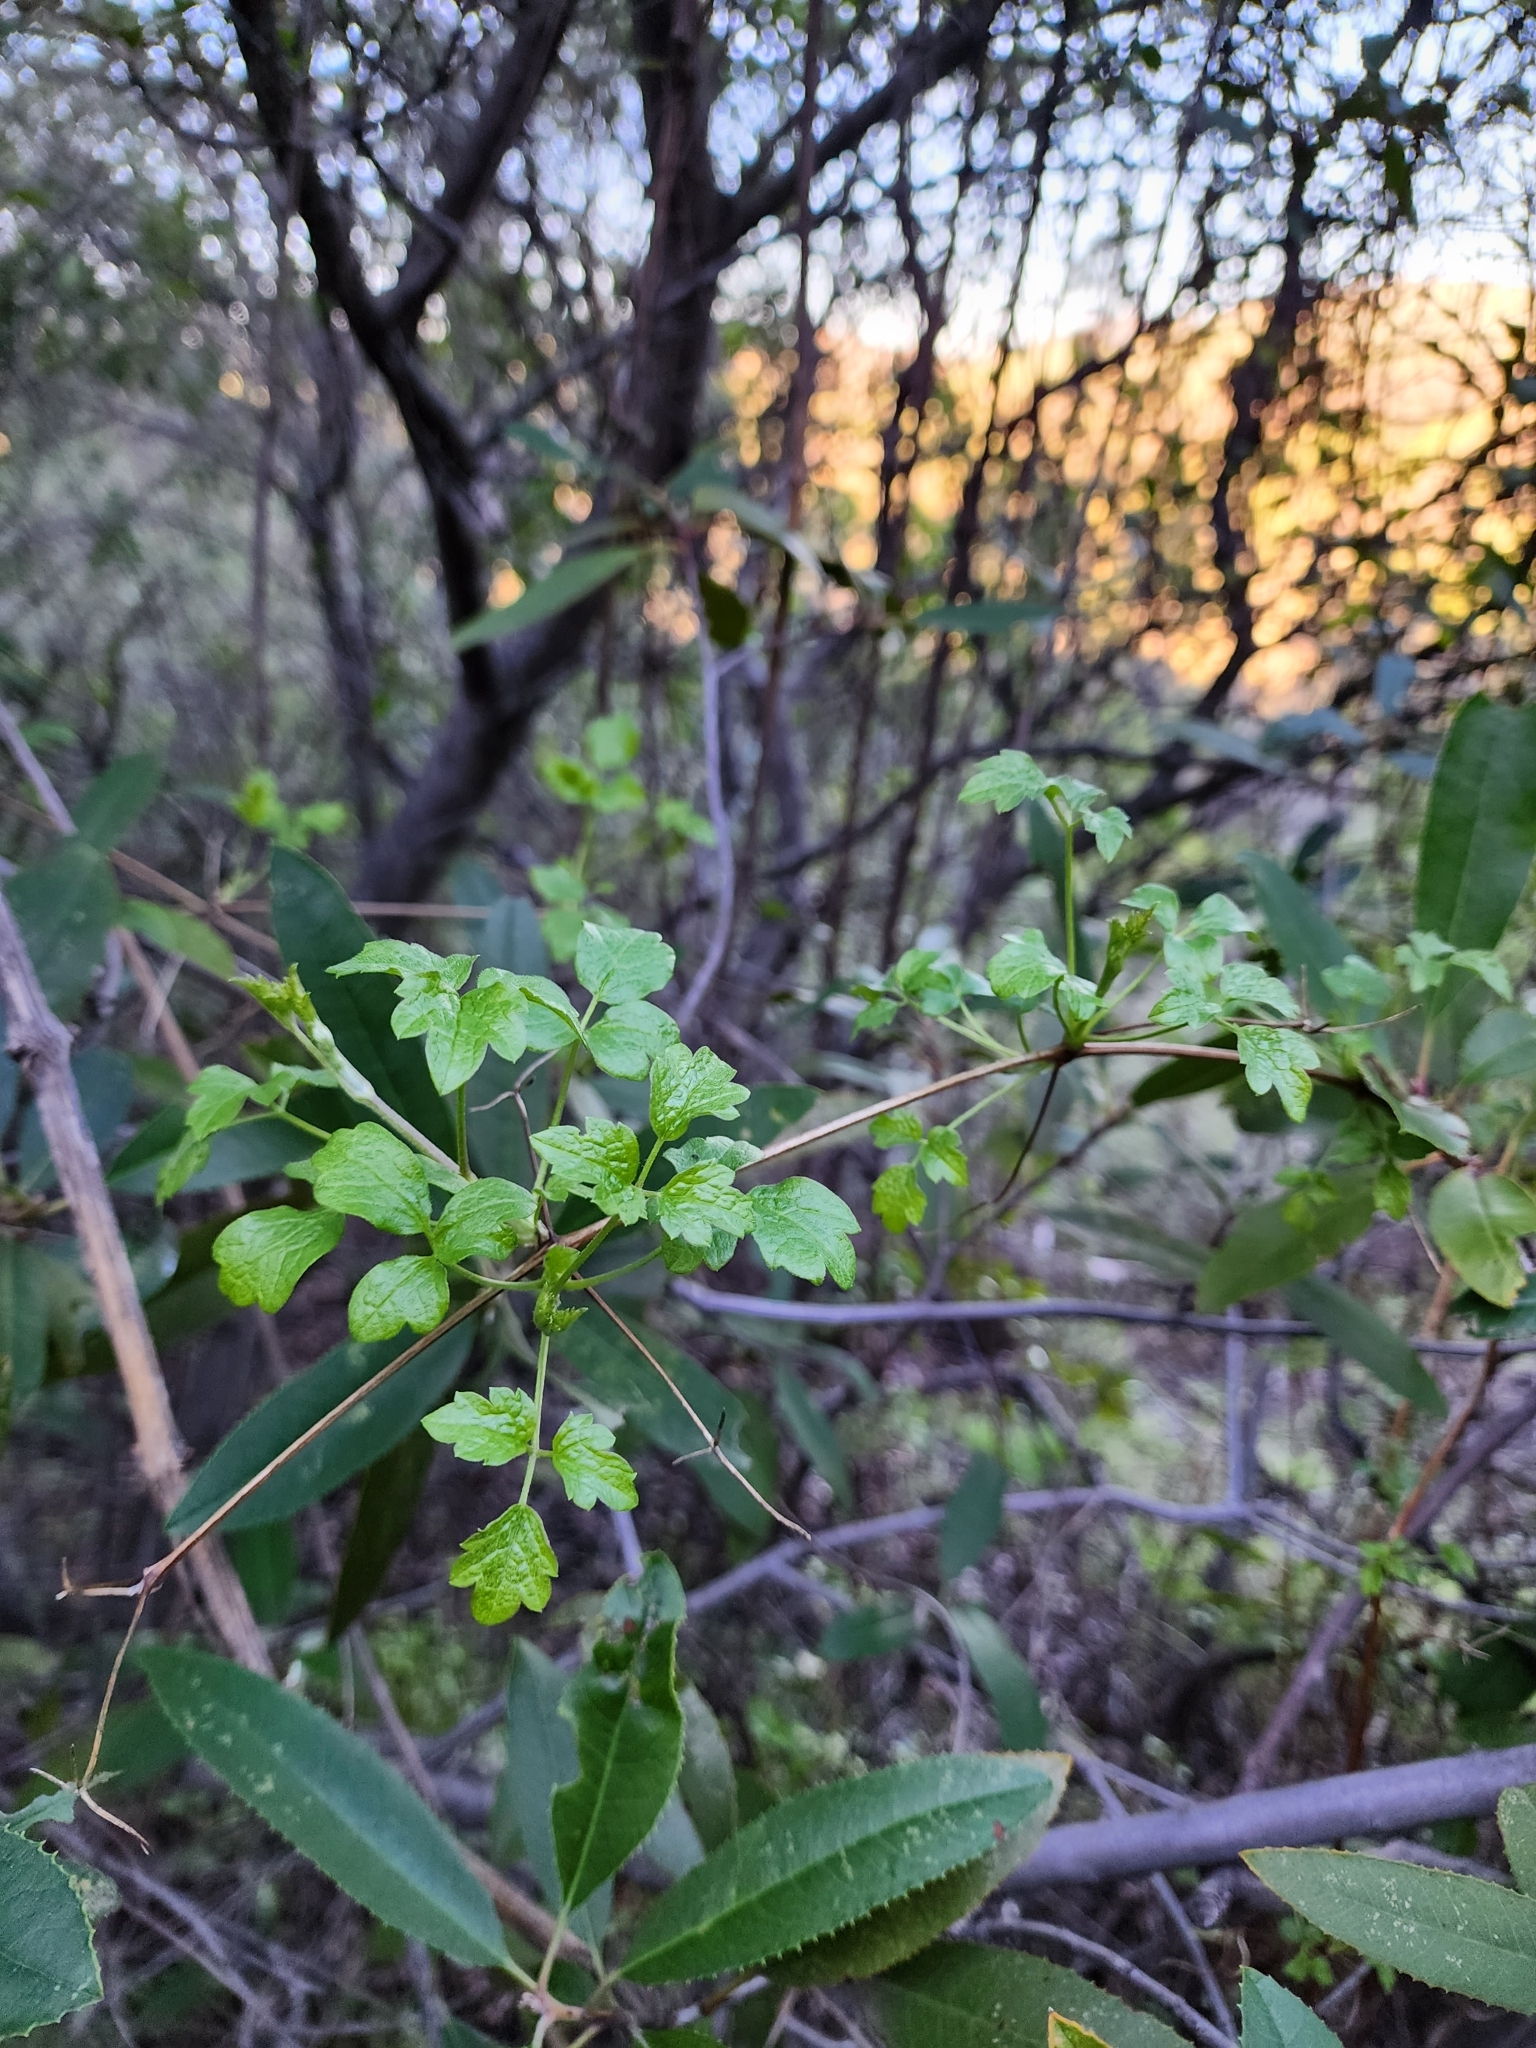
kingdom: Plantae
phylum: Tracheophyta
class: Magnoliopsida
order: Ranunculales
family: Ranunculaceae
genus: Clematis
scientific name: Clematis lasiantha
